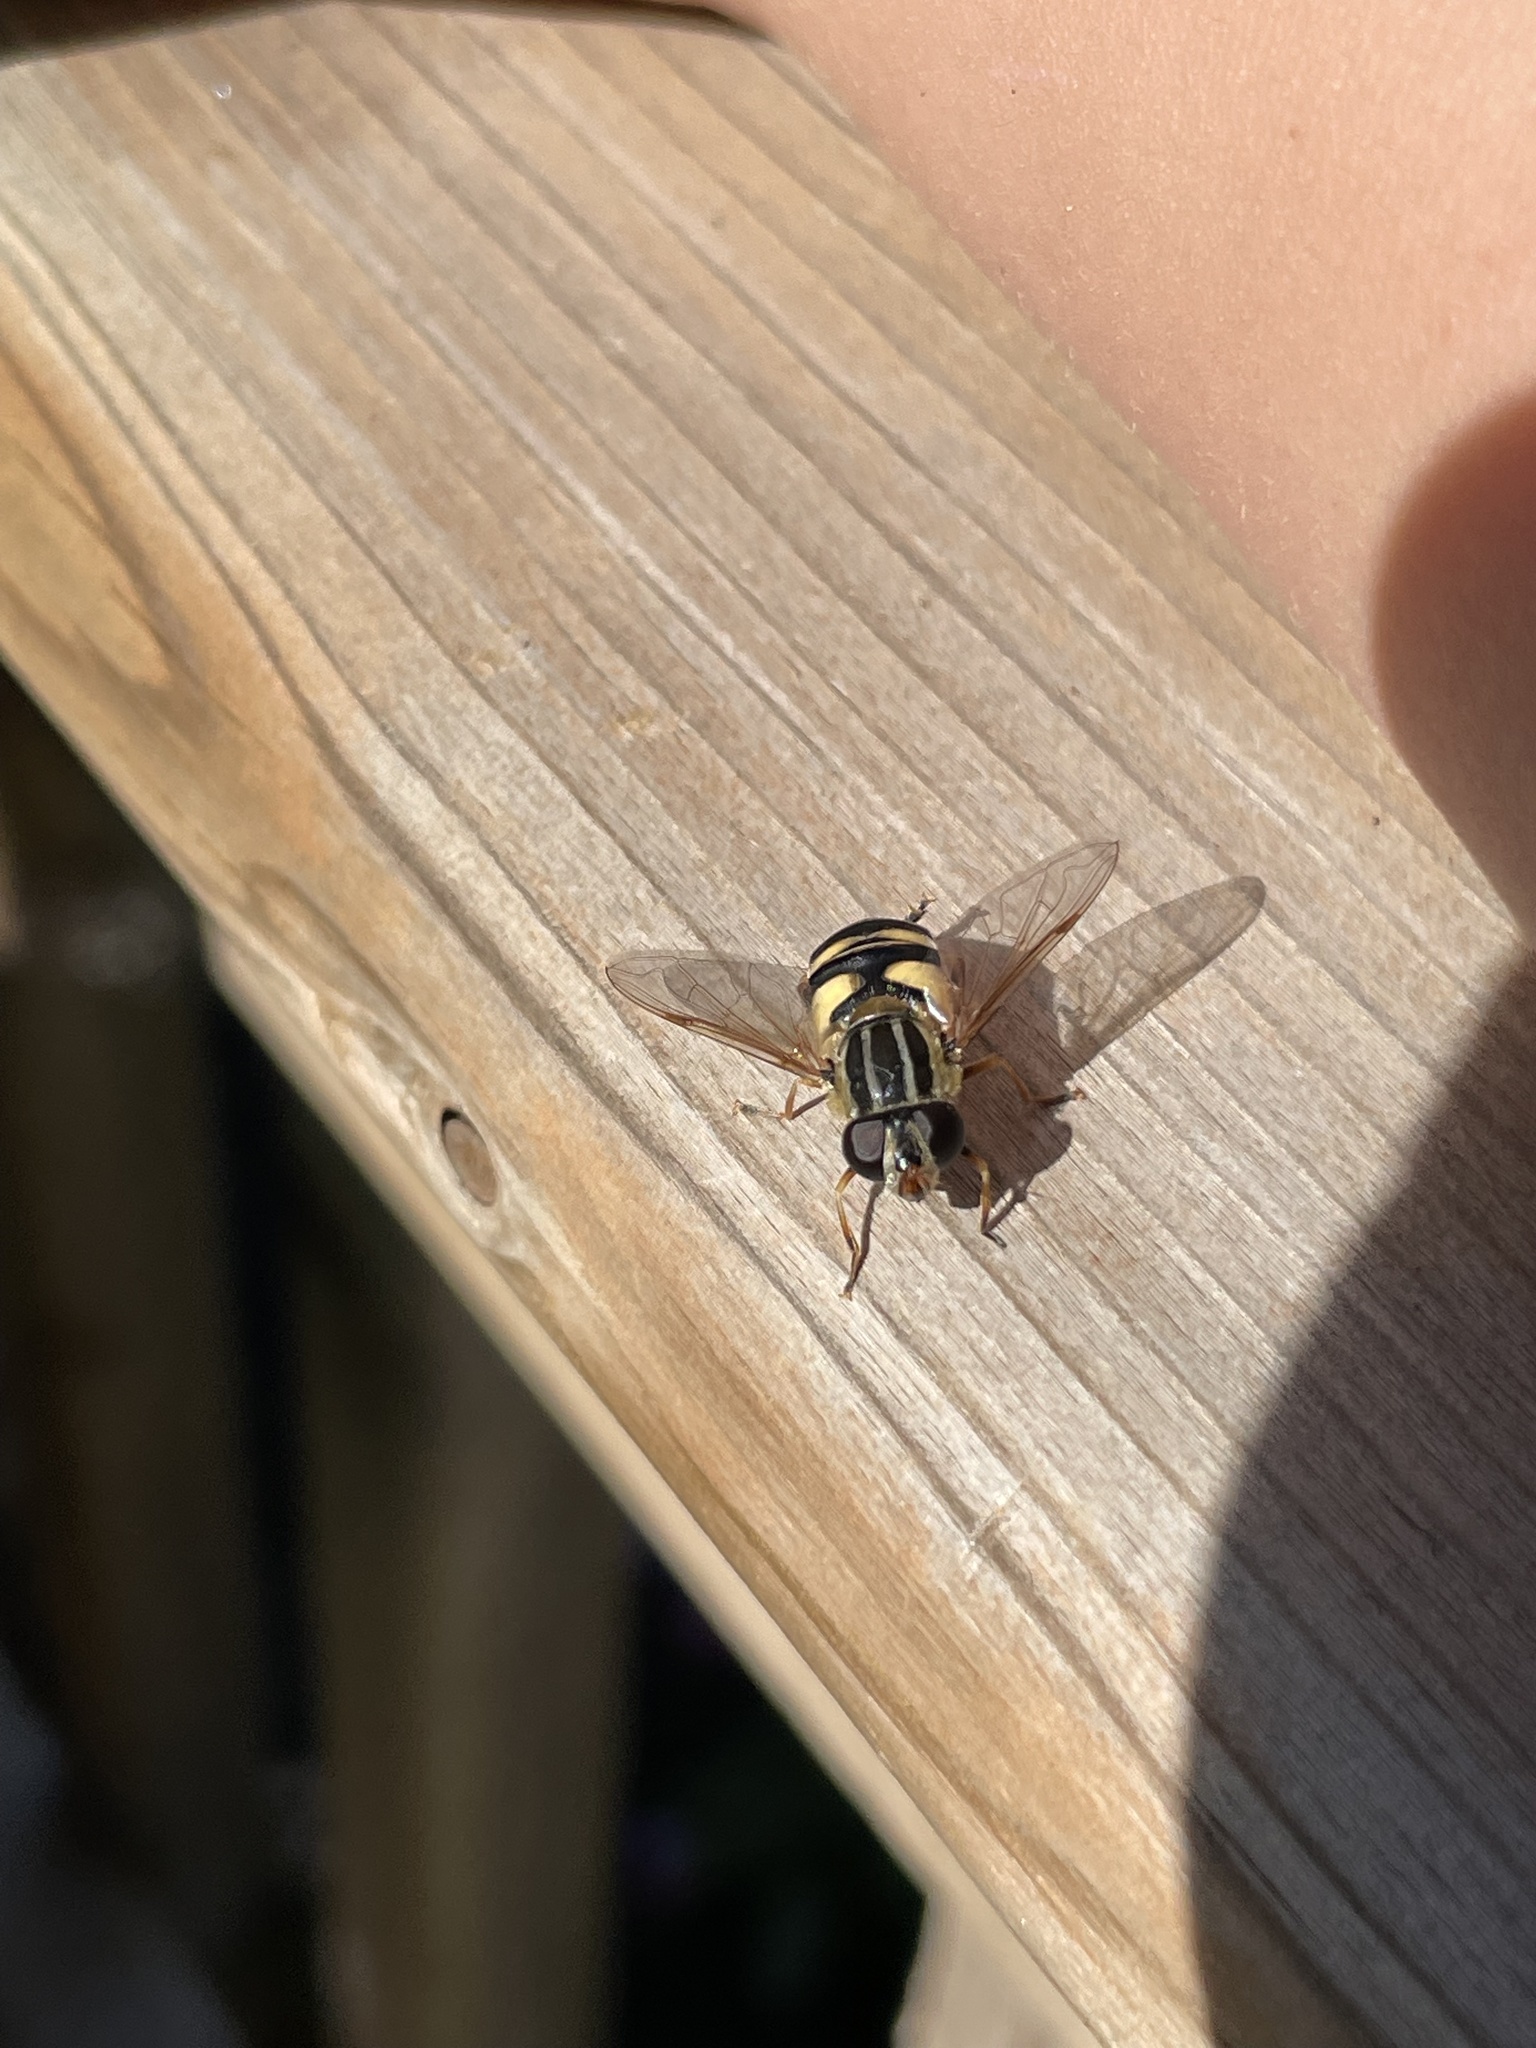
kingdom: Animalia
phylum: Arthropoda
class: Insecta
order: Diptera
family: Syrphidae
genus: Helophilus
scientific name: Helophilus fasciatus
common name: Narrow-headed marsh fly
